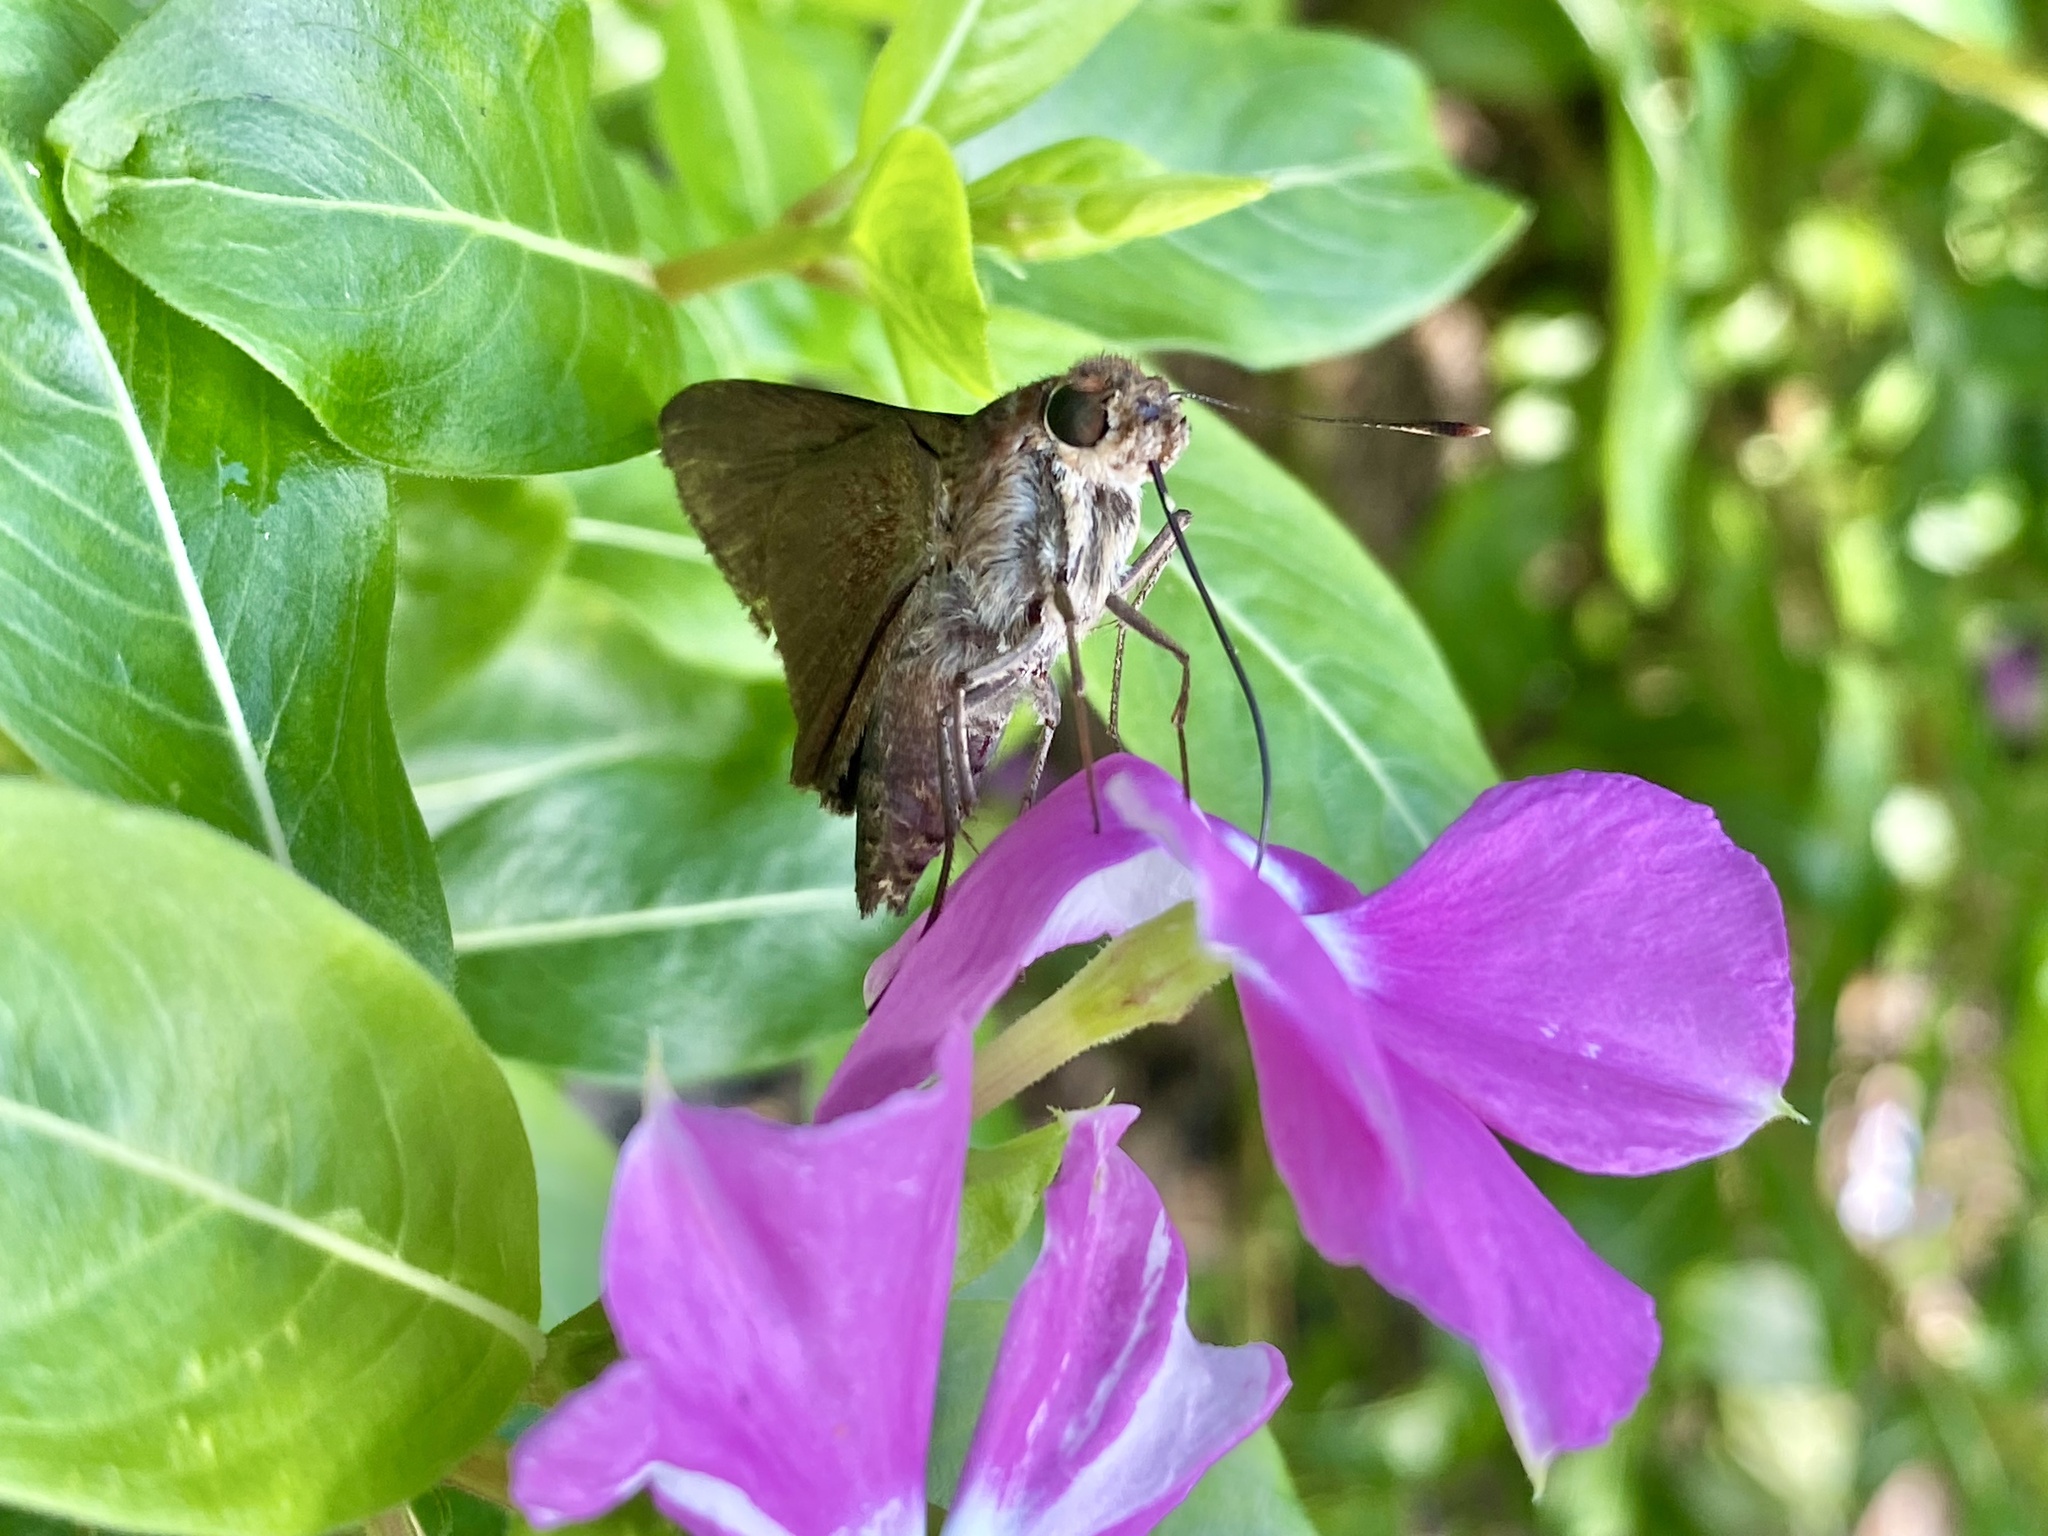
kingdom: Animalia
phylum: Arthropoda
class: Insecta
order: Lepidoptera
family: Hesperiidae
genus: Asbolis
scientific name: Asbolis capucinus
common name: Monk skipper
